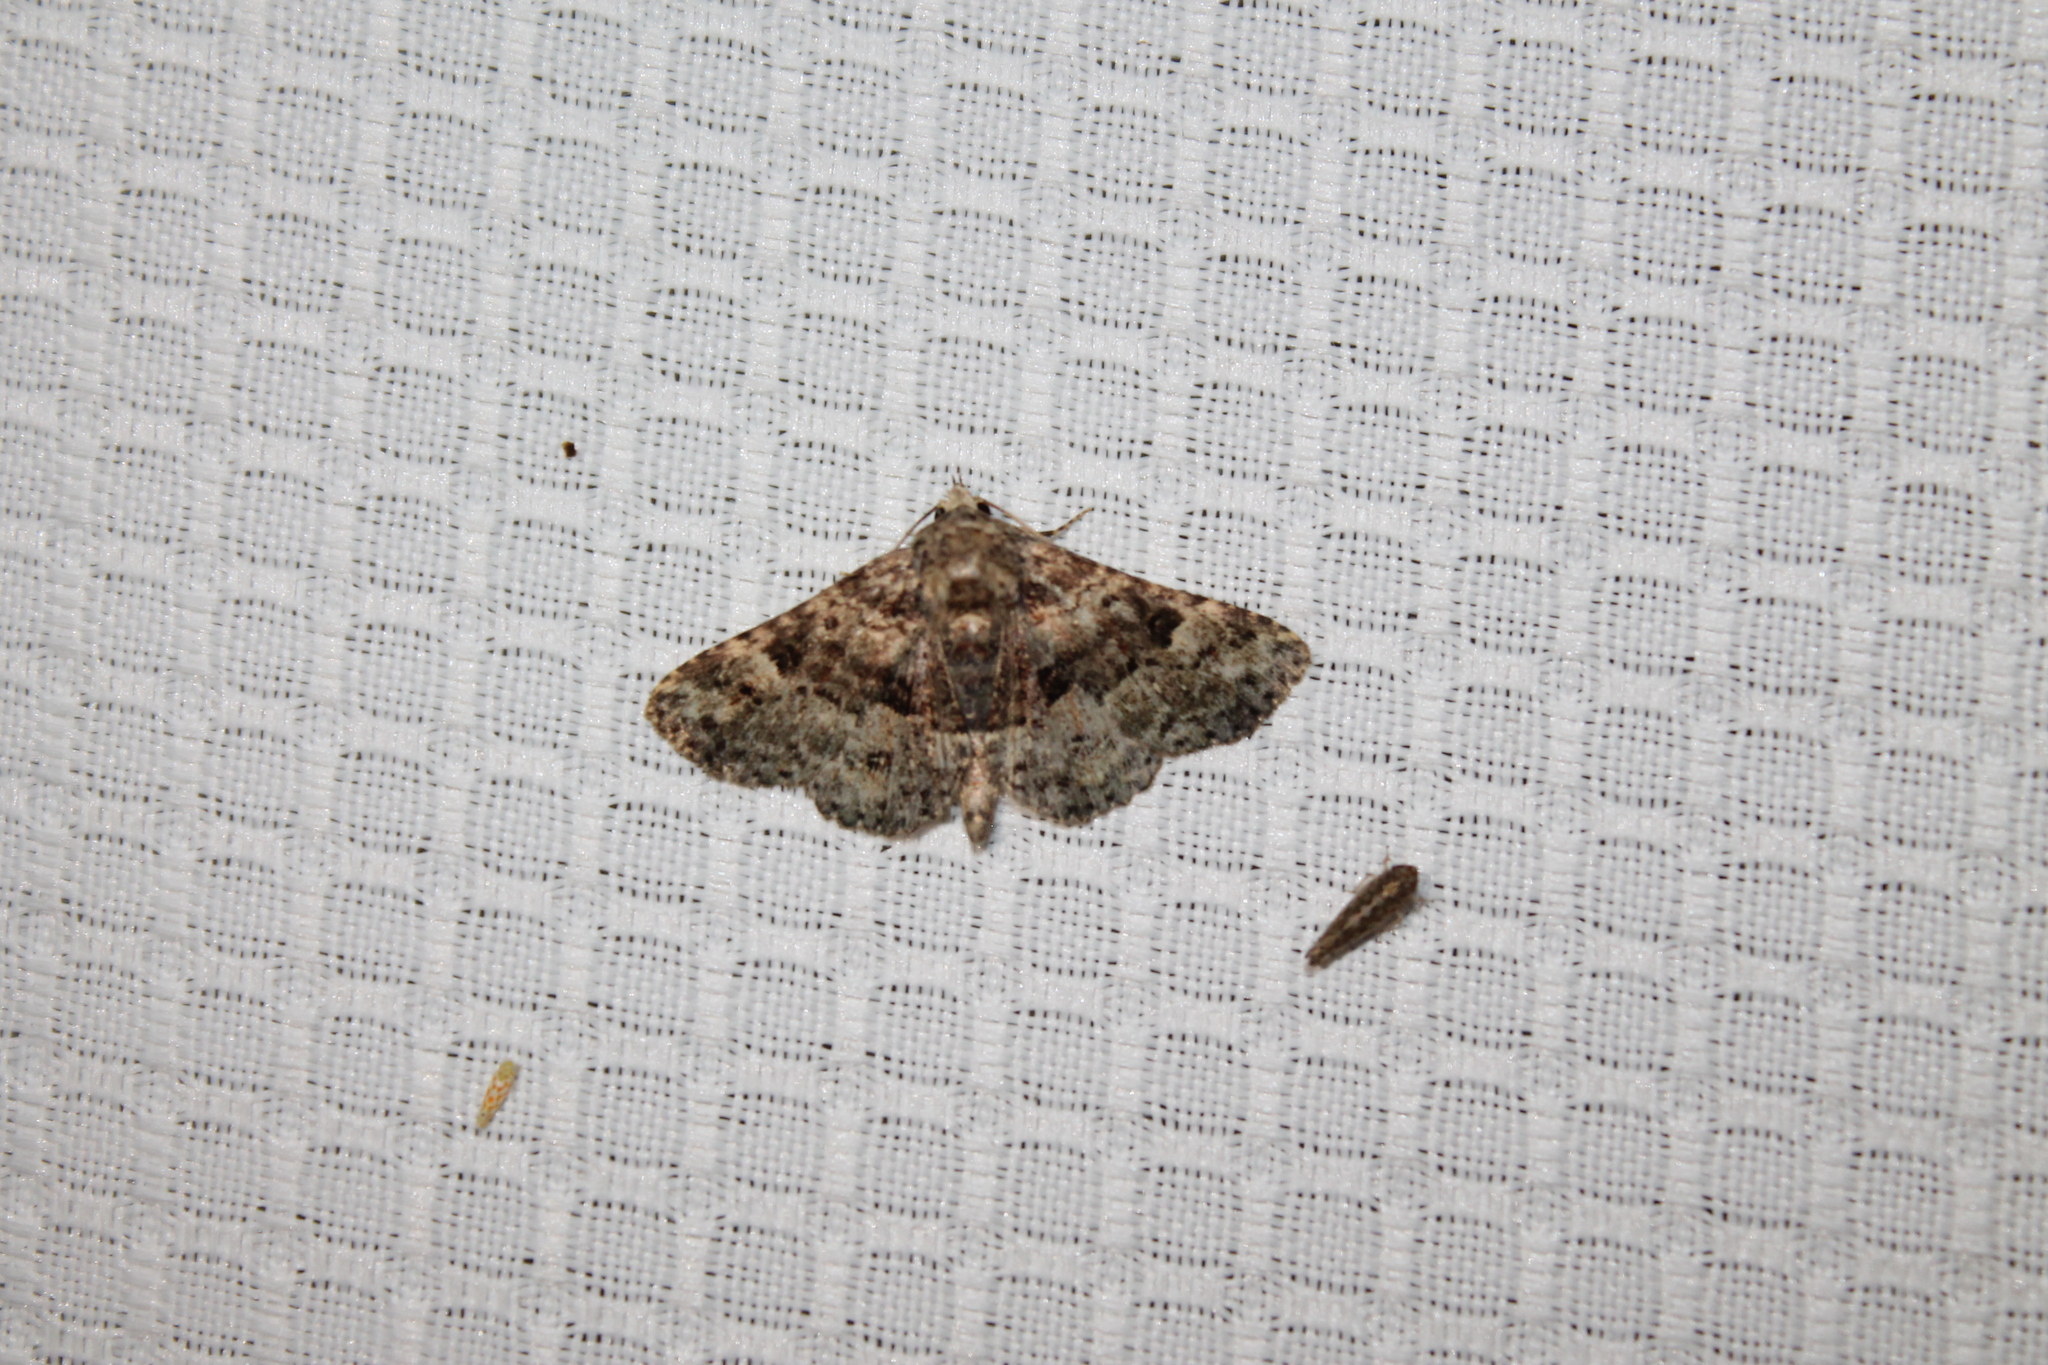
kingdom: Animalia
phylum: Arthropoda
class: Insecta
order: Lepidoptera
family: Erebidae
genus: Metalectra
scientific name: Metalectra discalis
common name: Common fungus moth
